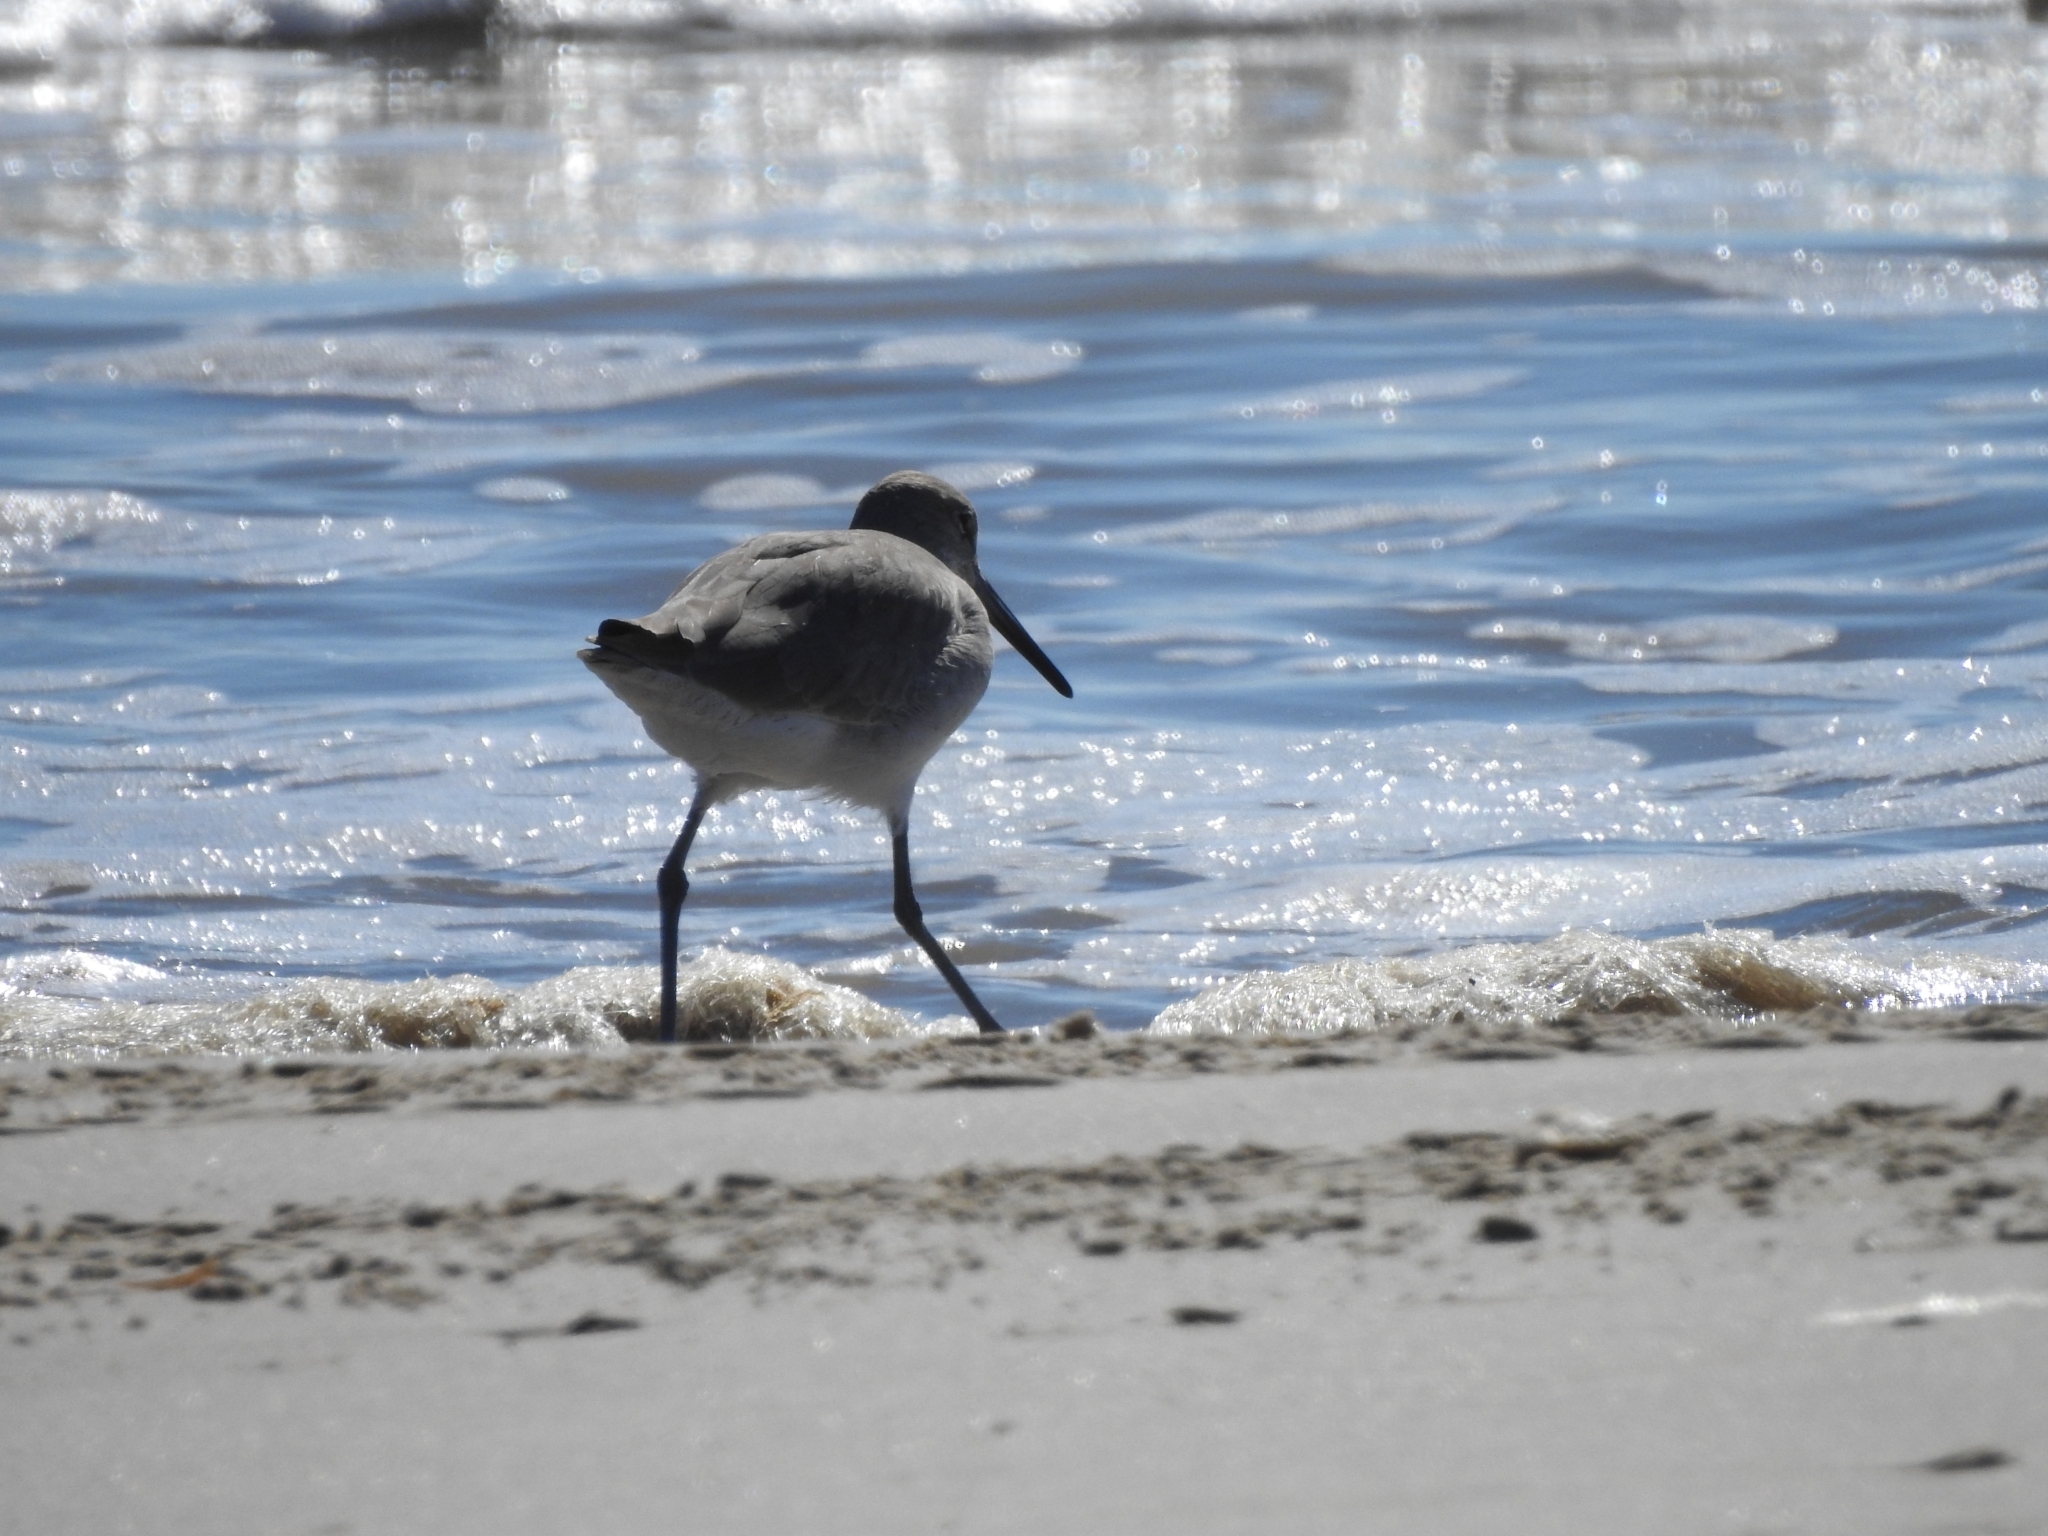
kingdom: Animalia
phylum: Chordata
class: Aves
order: Charadriiformes
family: Scolopacidae
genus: Tringa
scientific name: Tringa semipalmata
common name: Willet
